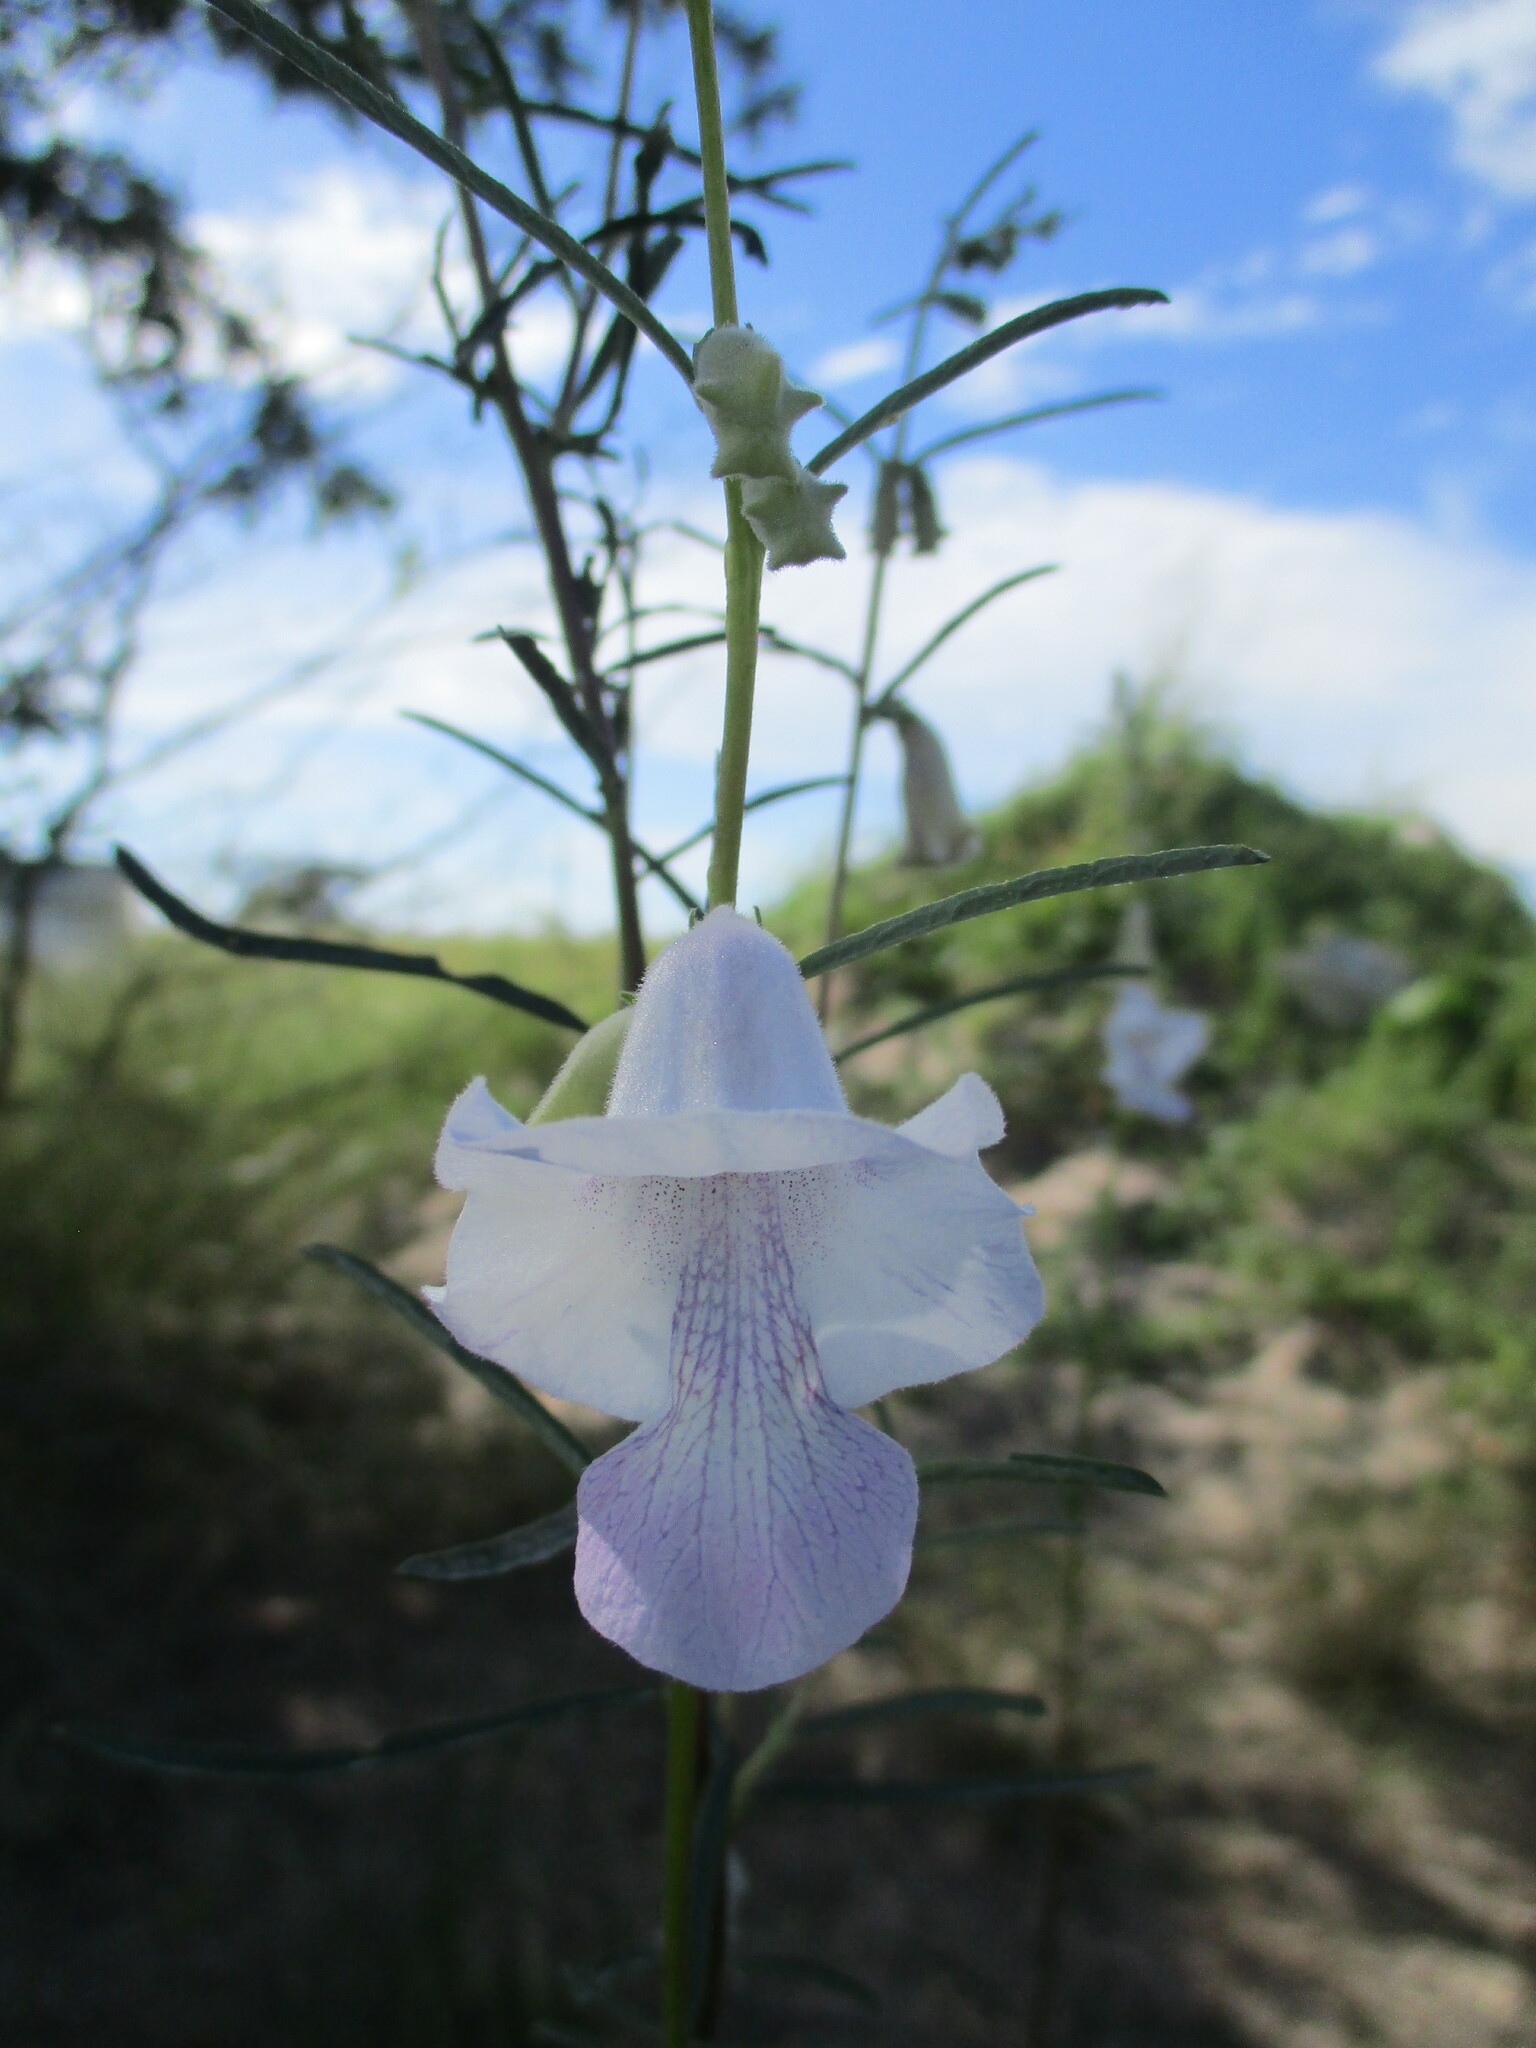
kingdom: Plantae
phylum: Tracheophyta
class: Magnoliopsida
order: Lamiales
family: Pedaliaceae
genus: Sesamum
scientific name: Sesamum calycinum
